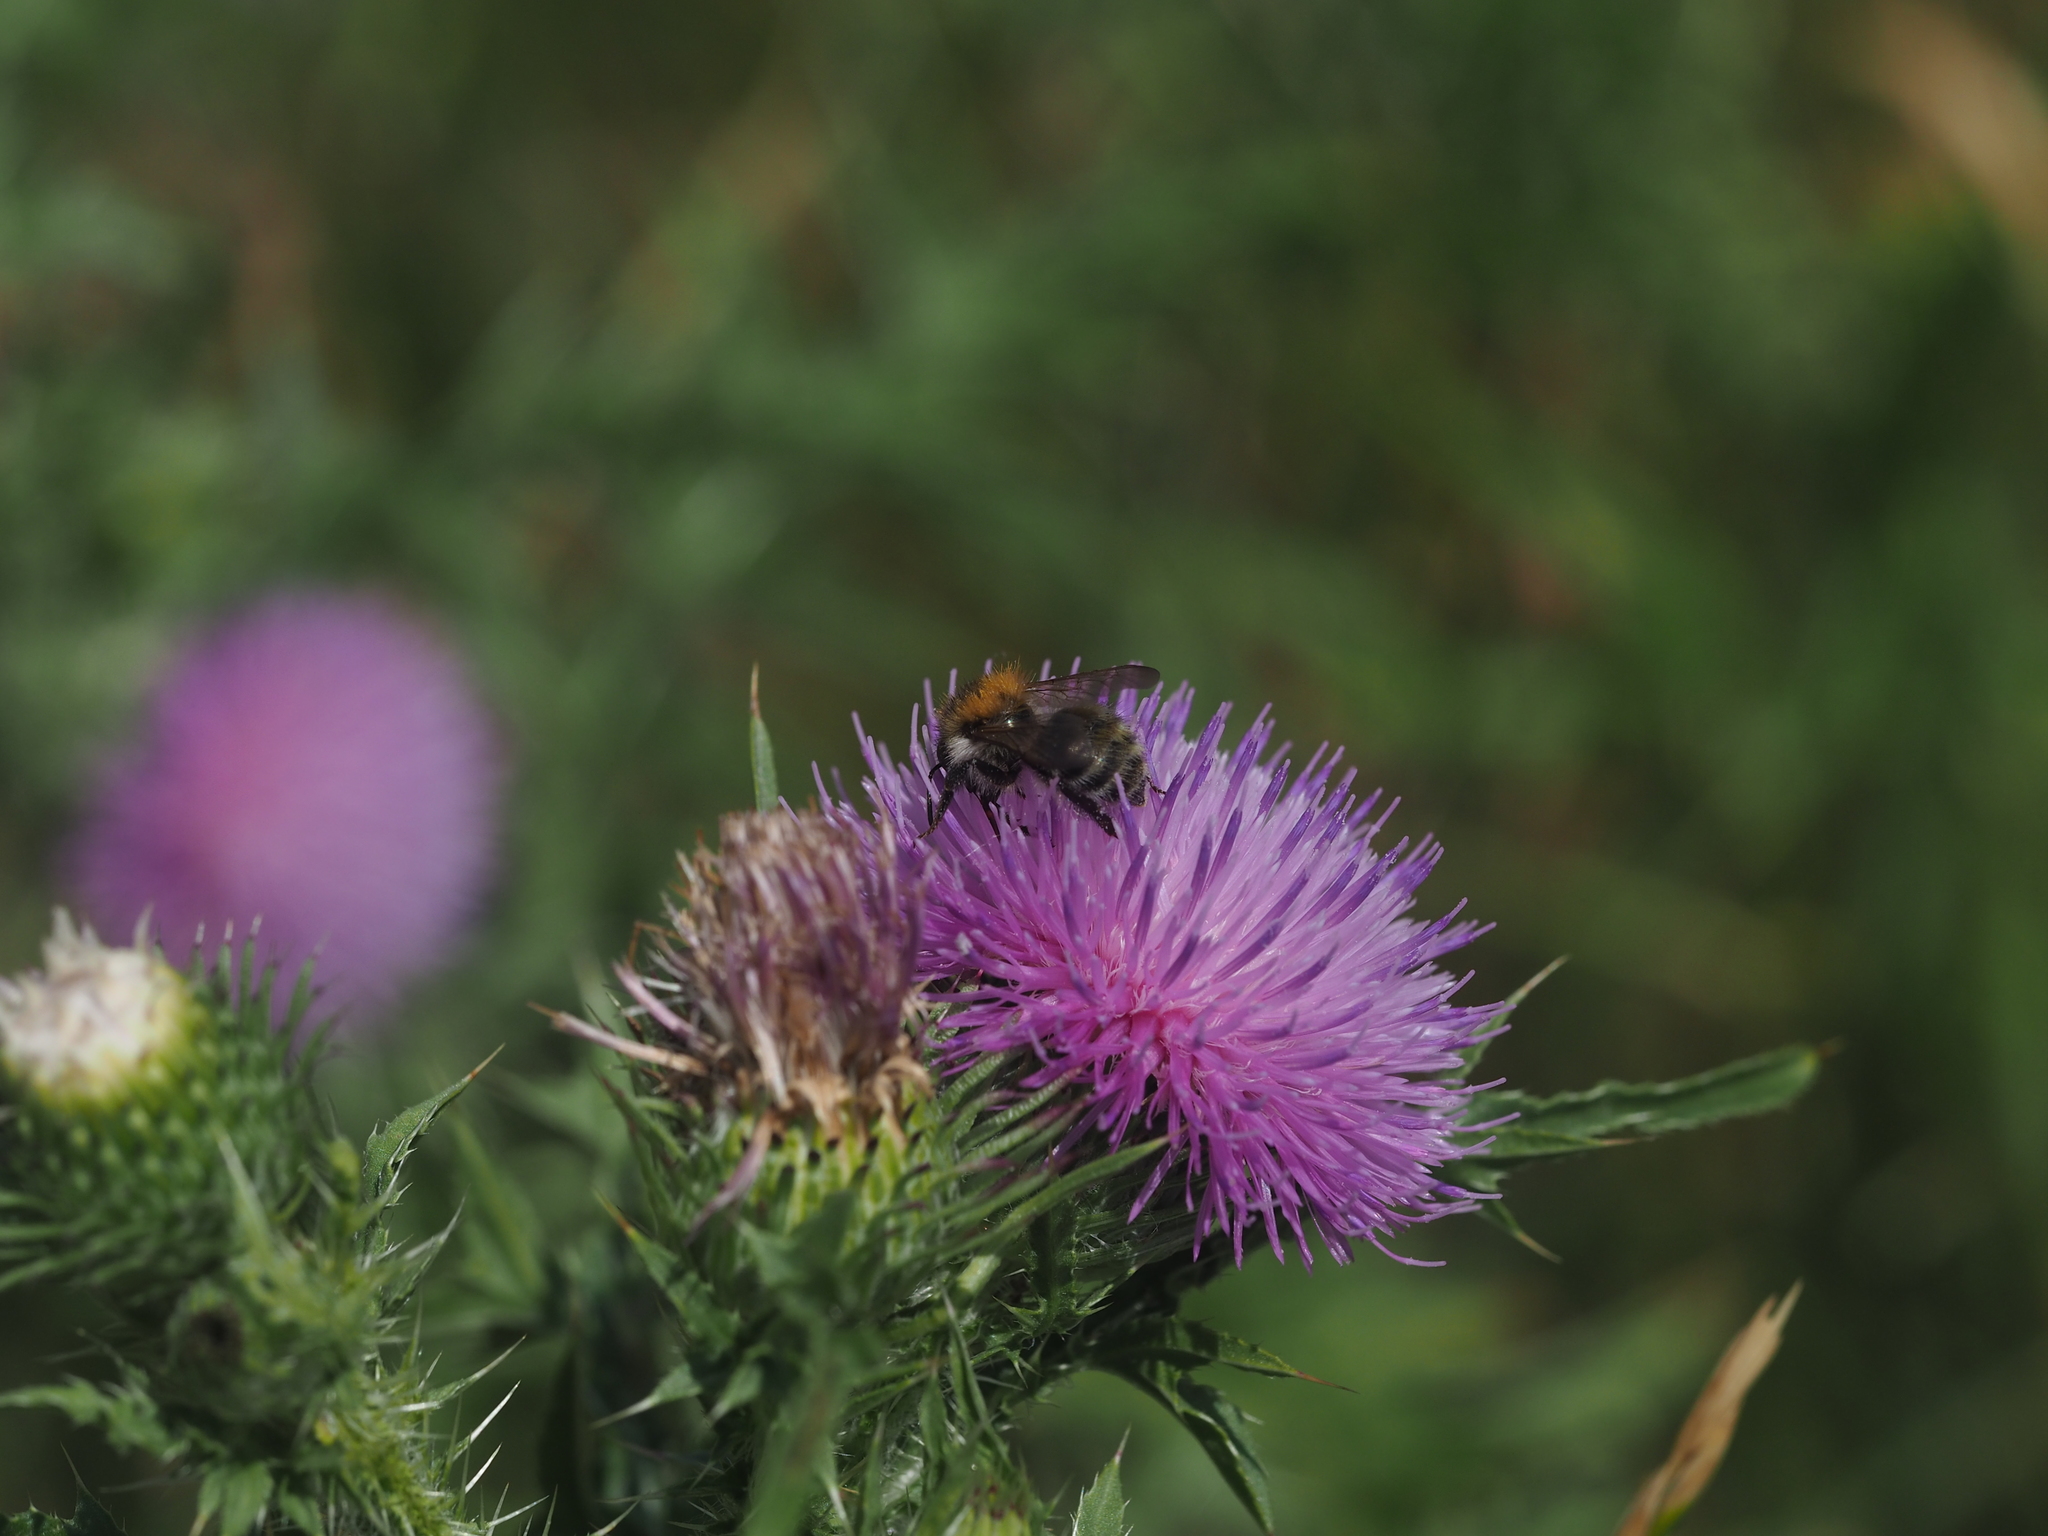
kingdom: Animalia
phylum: Arthropoda
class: Insecta
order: Hymenoptera
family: Apidae
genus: Bombus
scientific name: Bombus pascuorum
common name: Common carder bee
